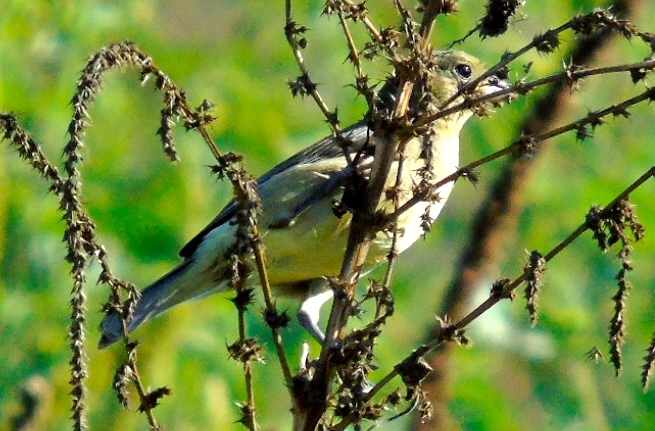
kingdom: Animalia
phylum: Chordata
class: Aves
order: Passeriformes
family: Fringillidae
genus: Spinus
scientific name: Spinus psaltria
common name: Lesser goldfinch
